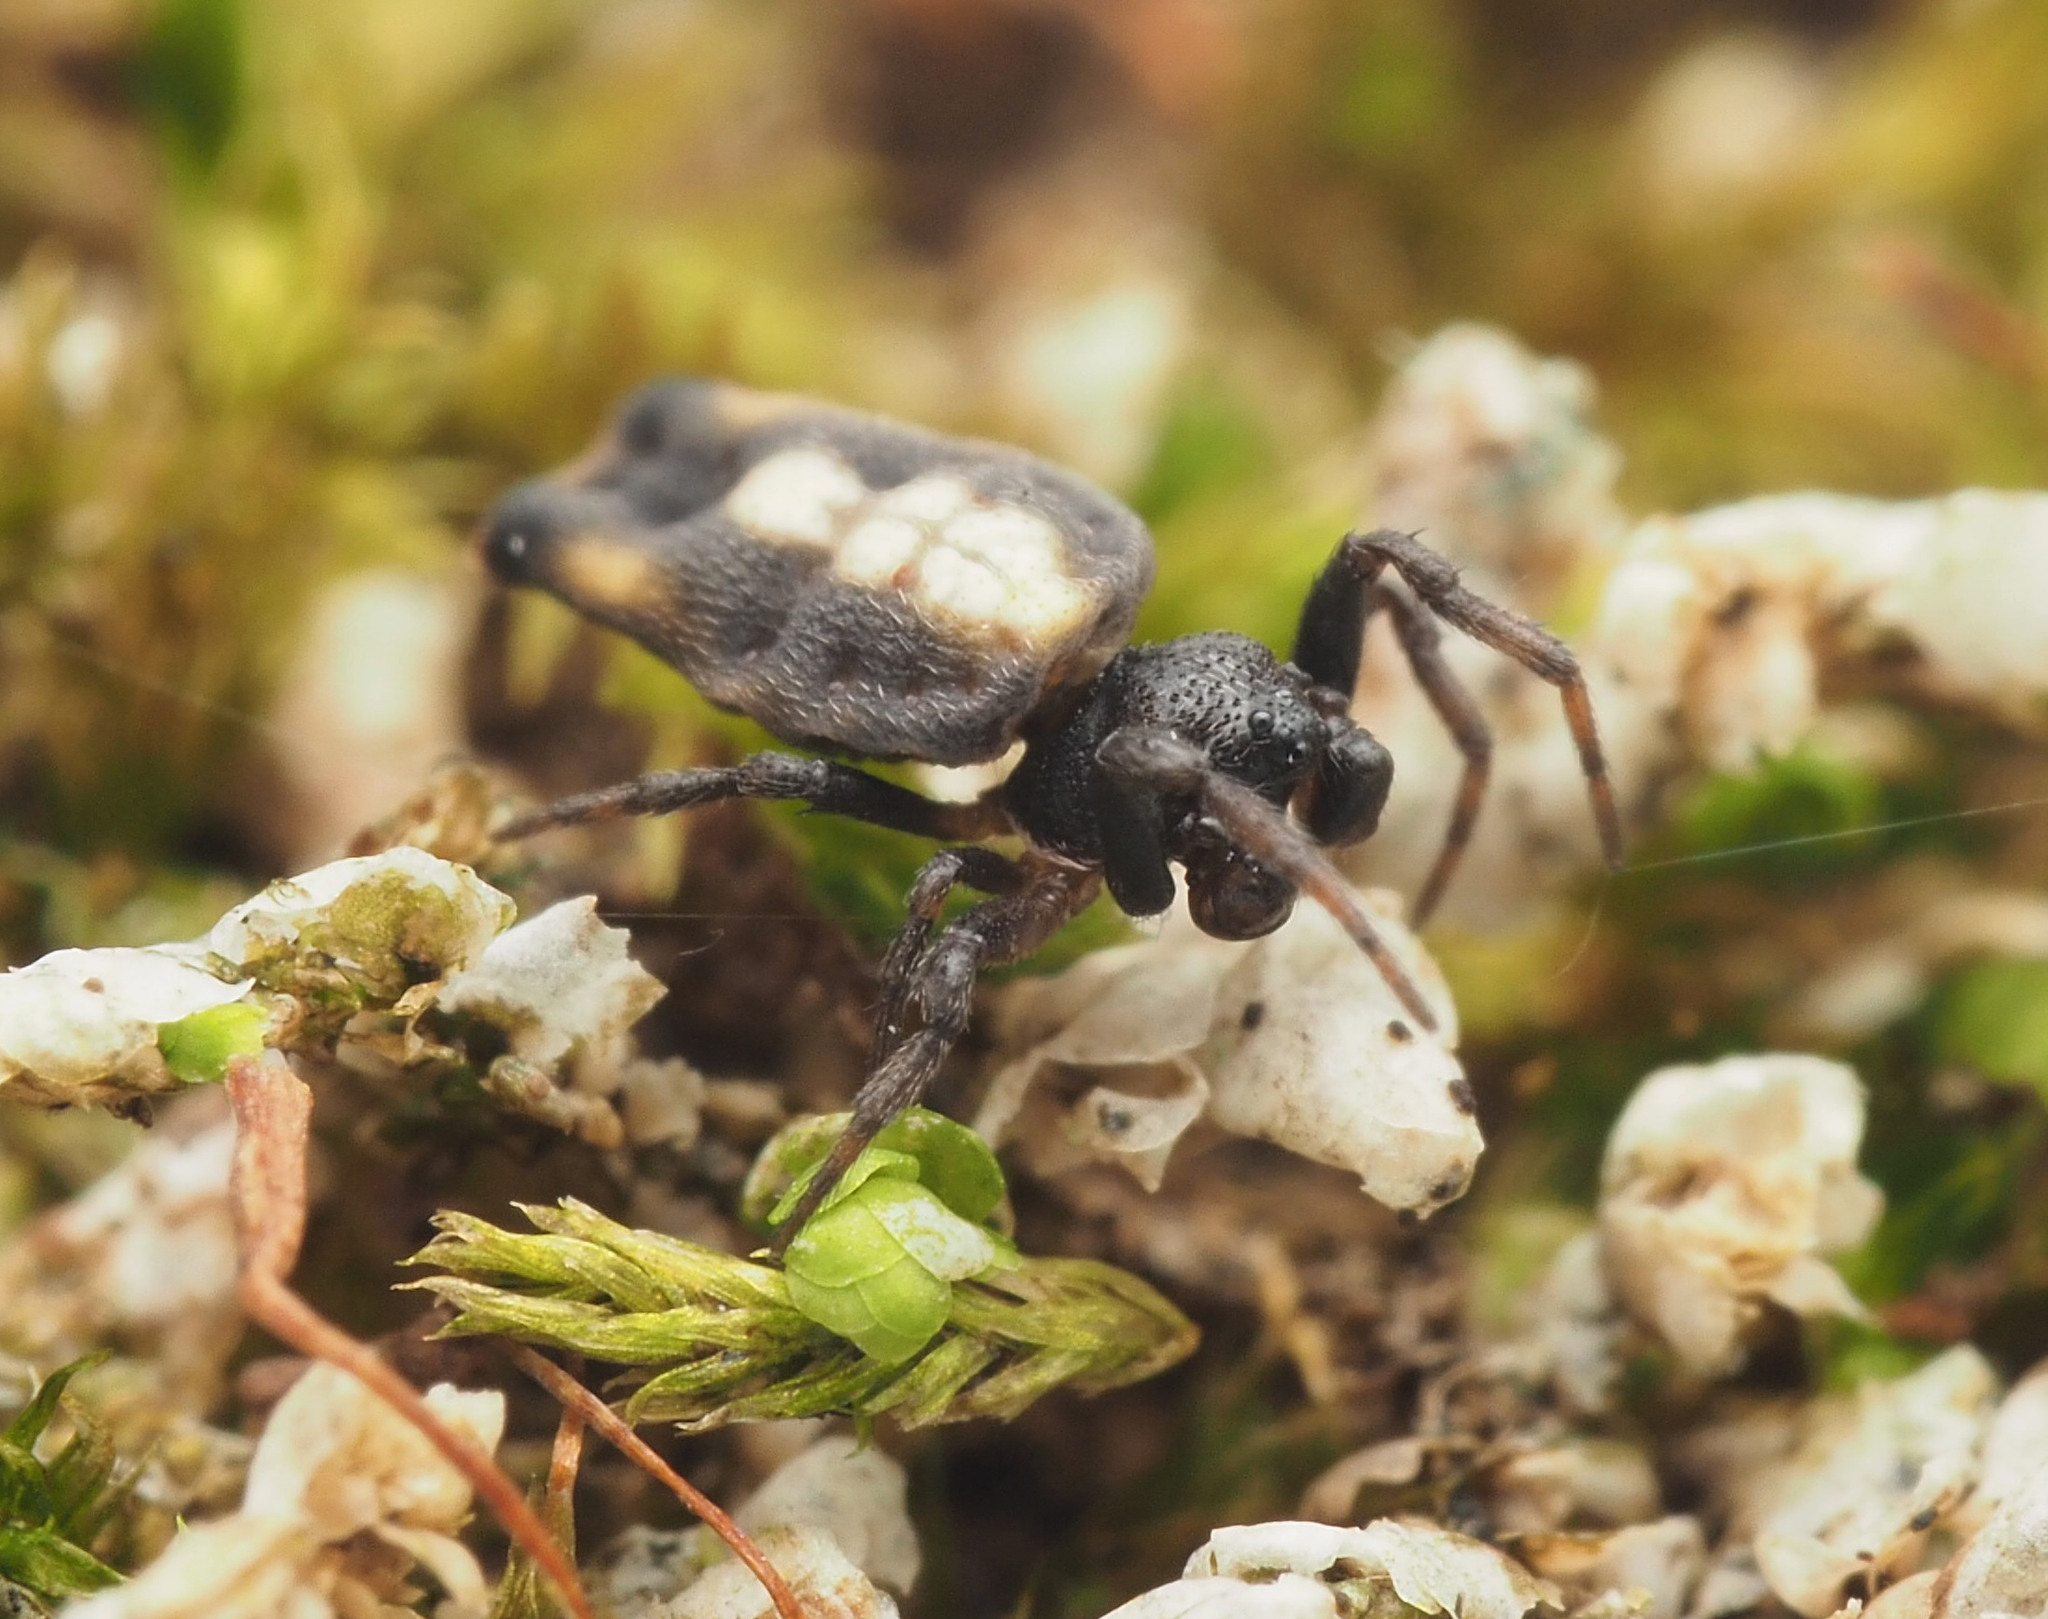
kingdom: Animalia
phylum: Arthropoda
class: Arachnida
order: Araneae
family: Araneidae
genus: Gasteracantha
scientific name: Gasteracantha quadrispinosa
